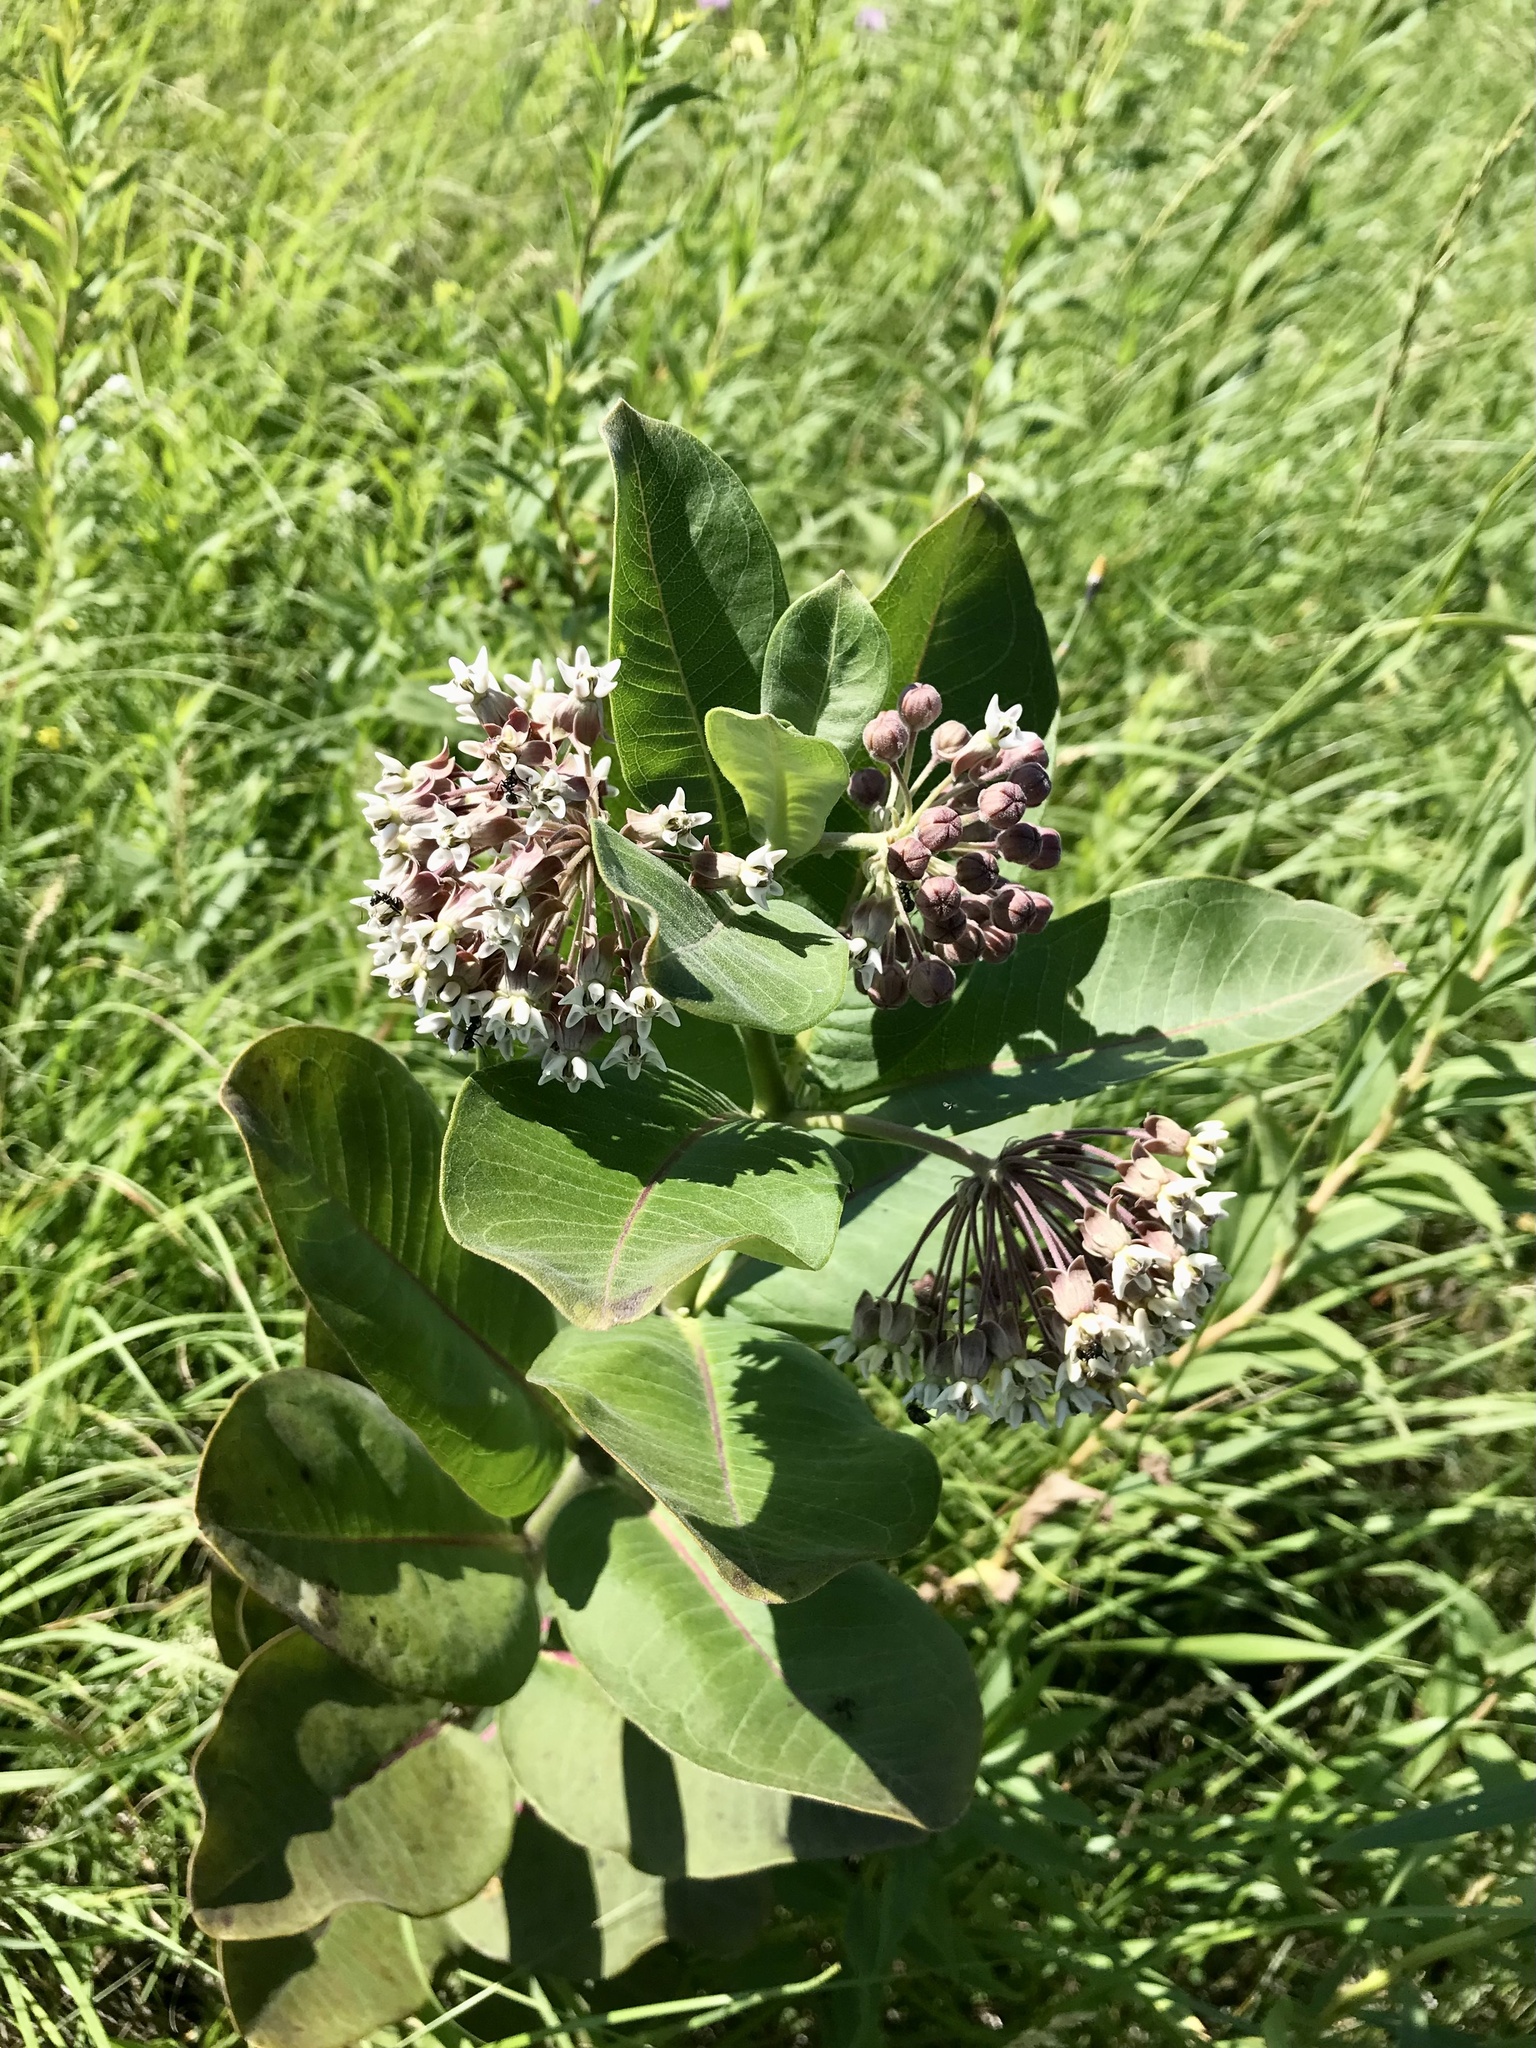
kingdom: Plantae
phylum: Tracheophyta
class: Magnoliopsida
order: Gentianales
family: Apocynaceae
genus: Asclepias
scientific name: Asclepias syriaca
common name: Common milkweed
